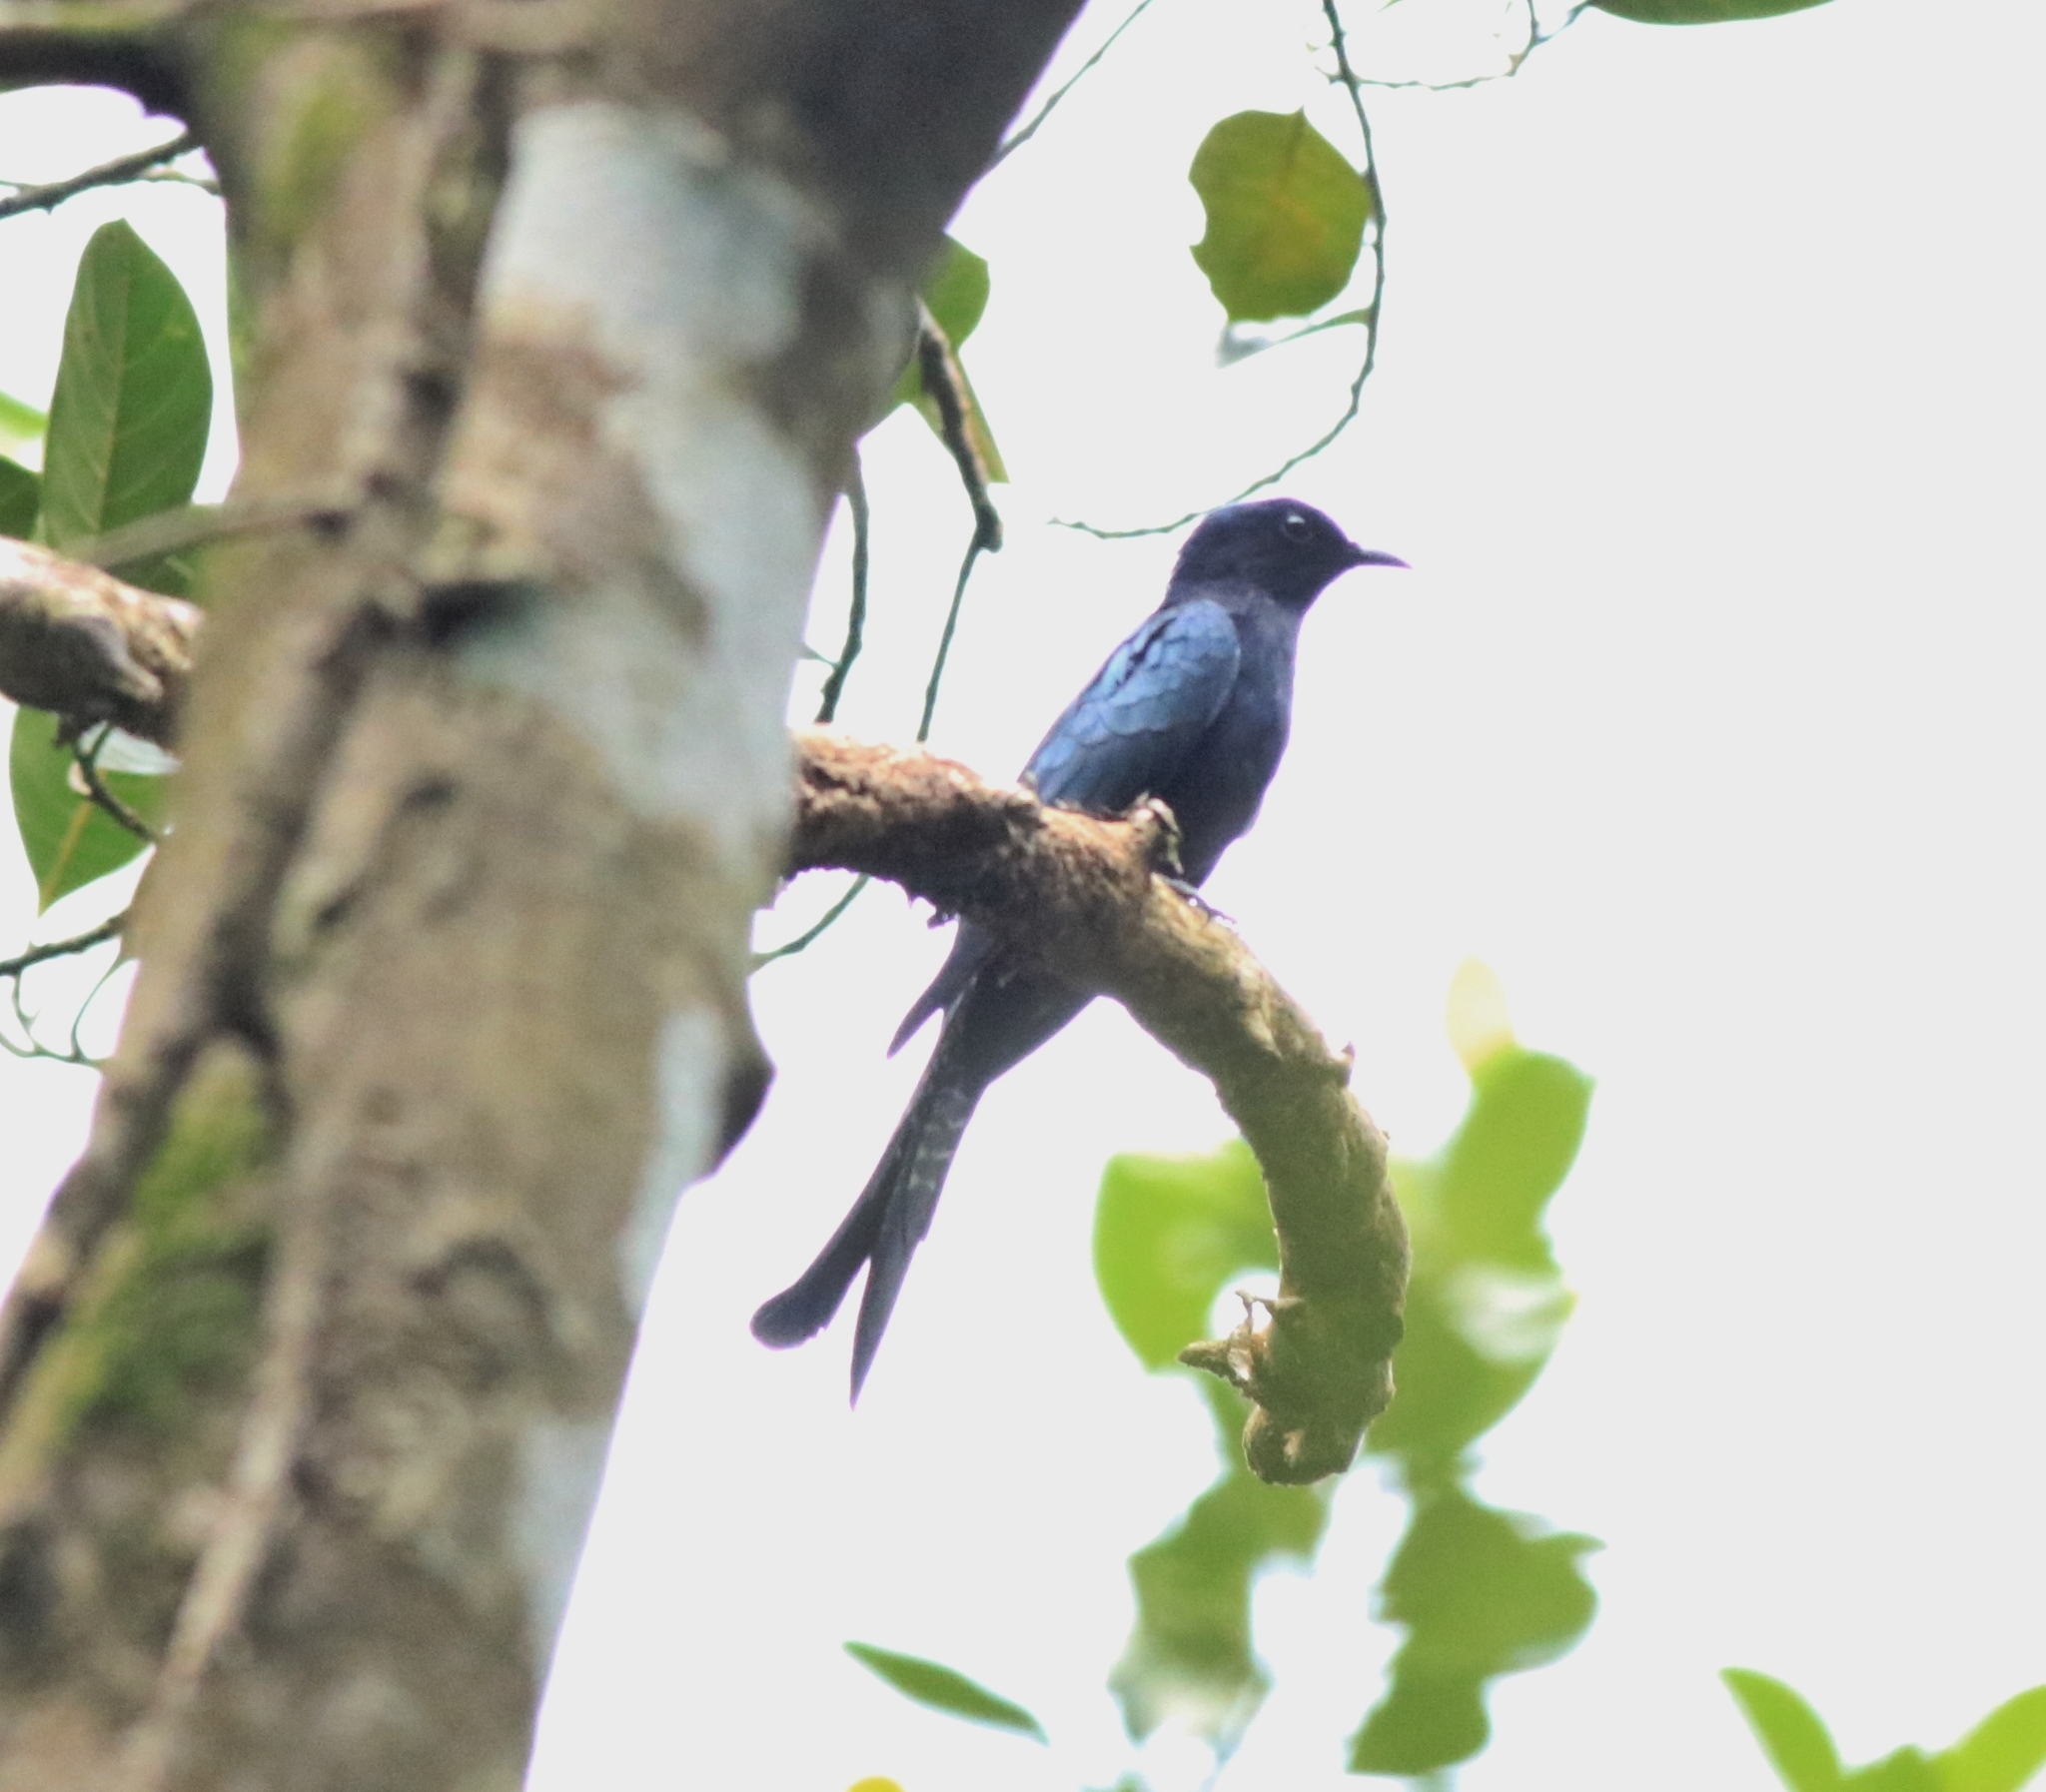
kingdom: Animalia
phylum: Chordata
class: Aves
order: Cuculiformes
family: Cuculidae
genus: Surniculus
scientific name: Surniculus lugubris
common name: Square-tailed drongo-cuckoo
